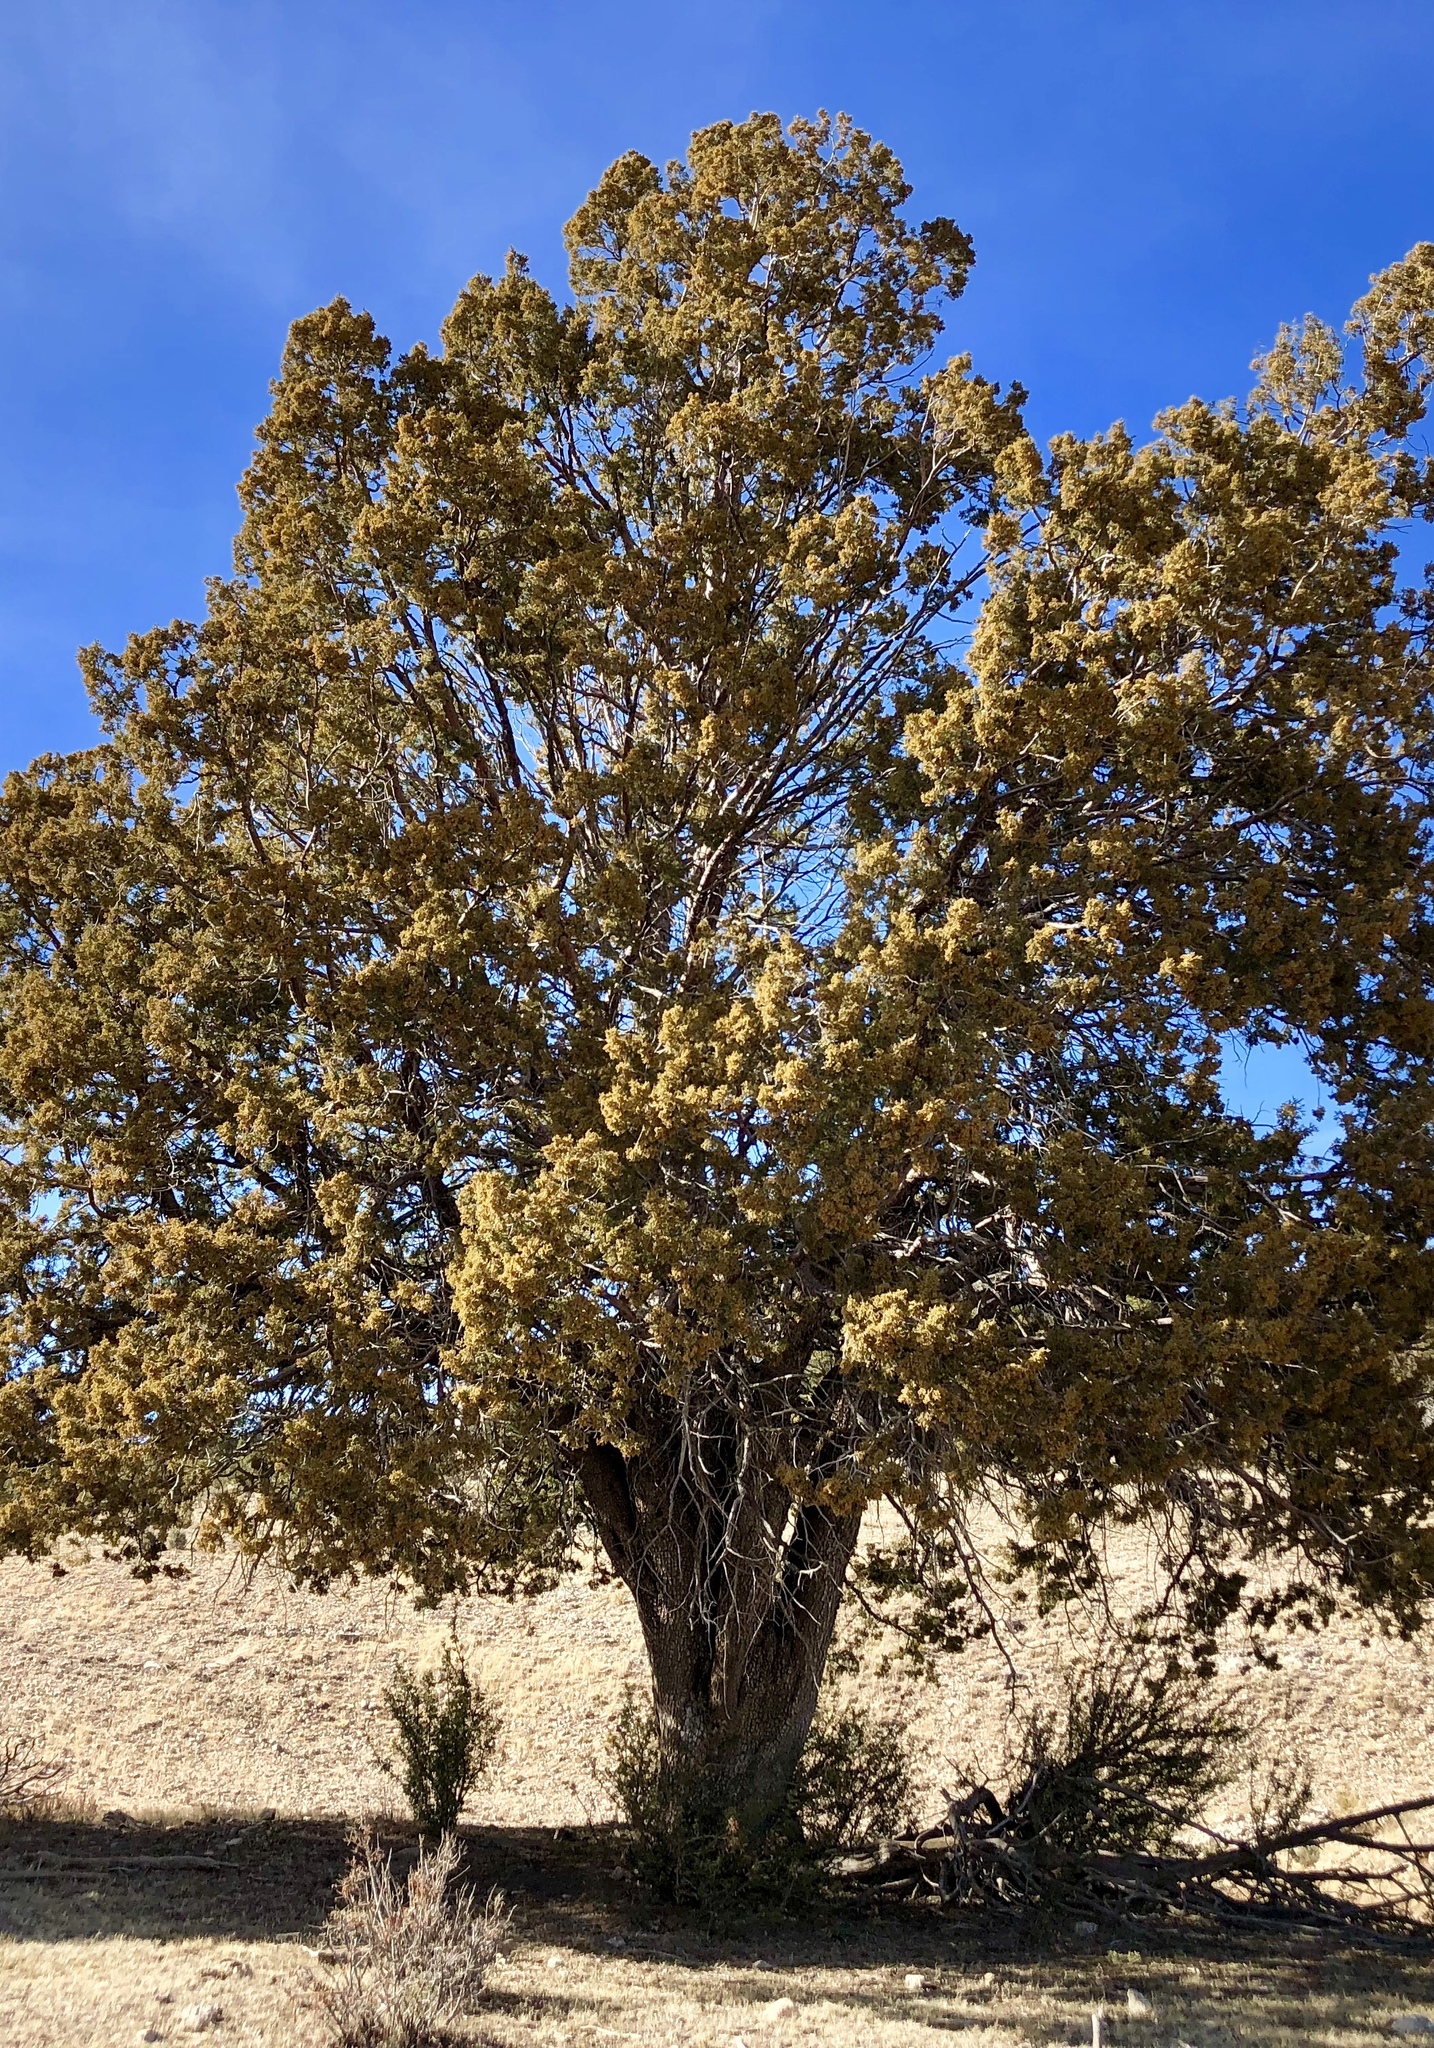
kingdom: Plantae
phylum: Tracheophyta
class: Pinopsida
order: Pinales
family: Cupressaceae
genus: Juniperus
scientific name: Juniperus deppeana
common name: Alligator juniper
